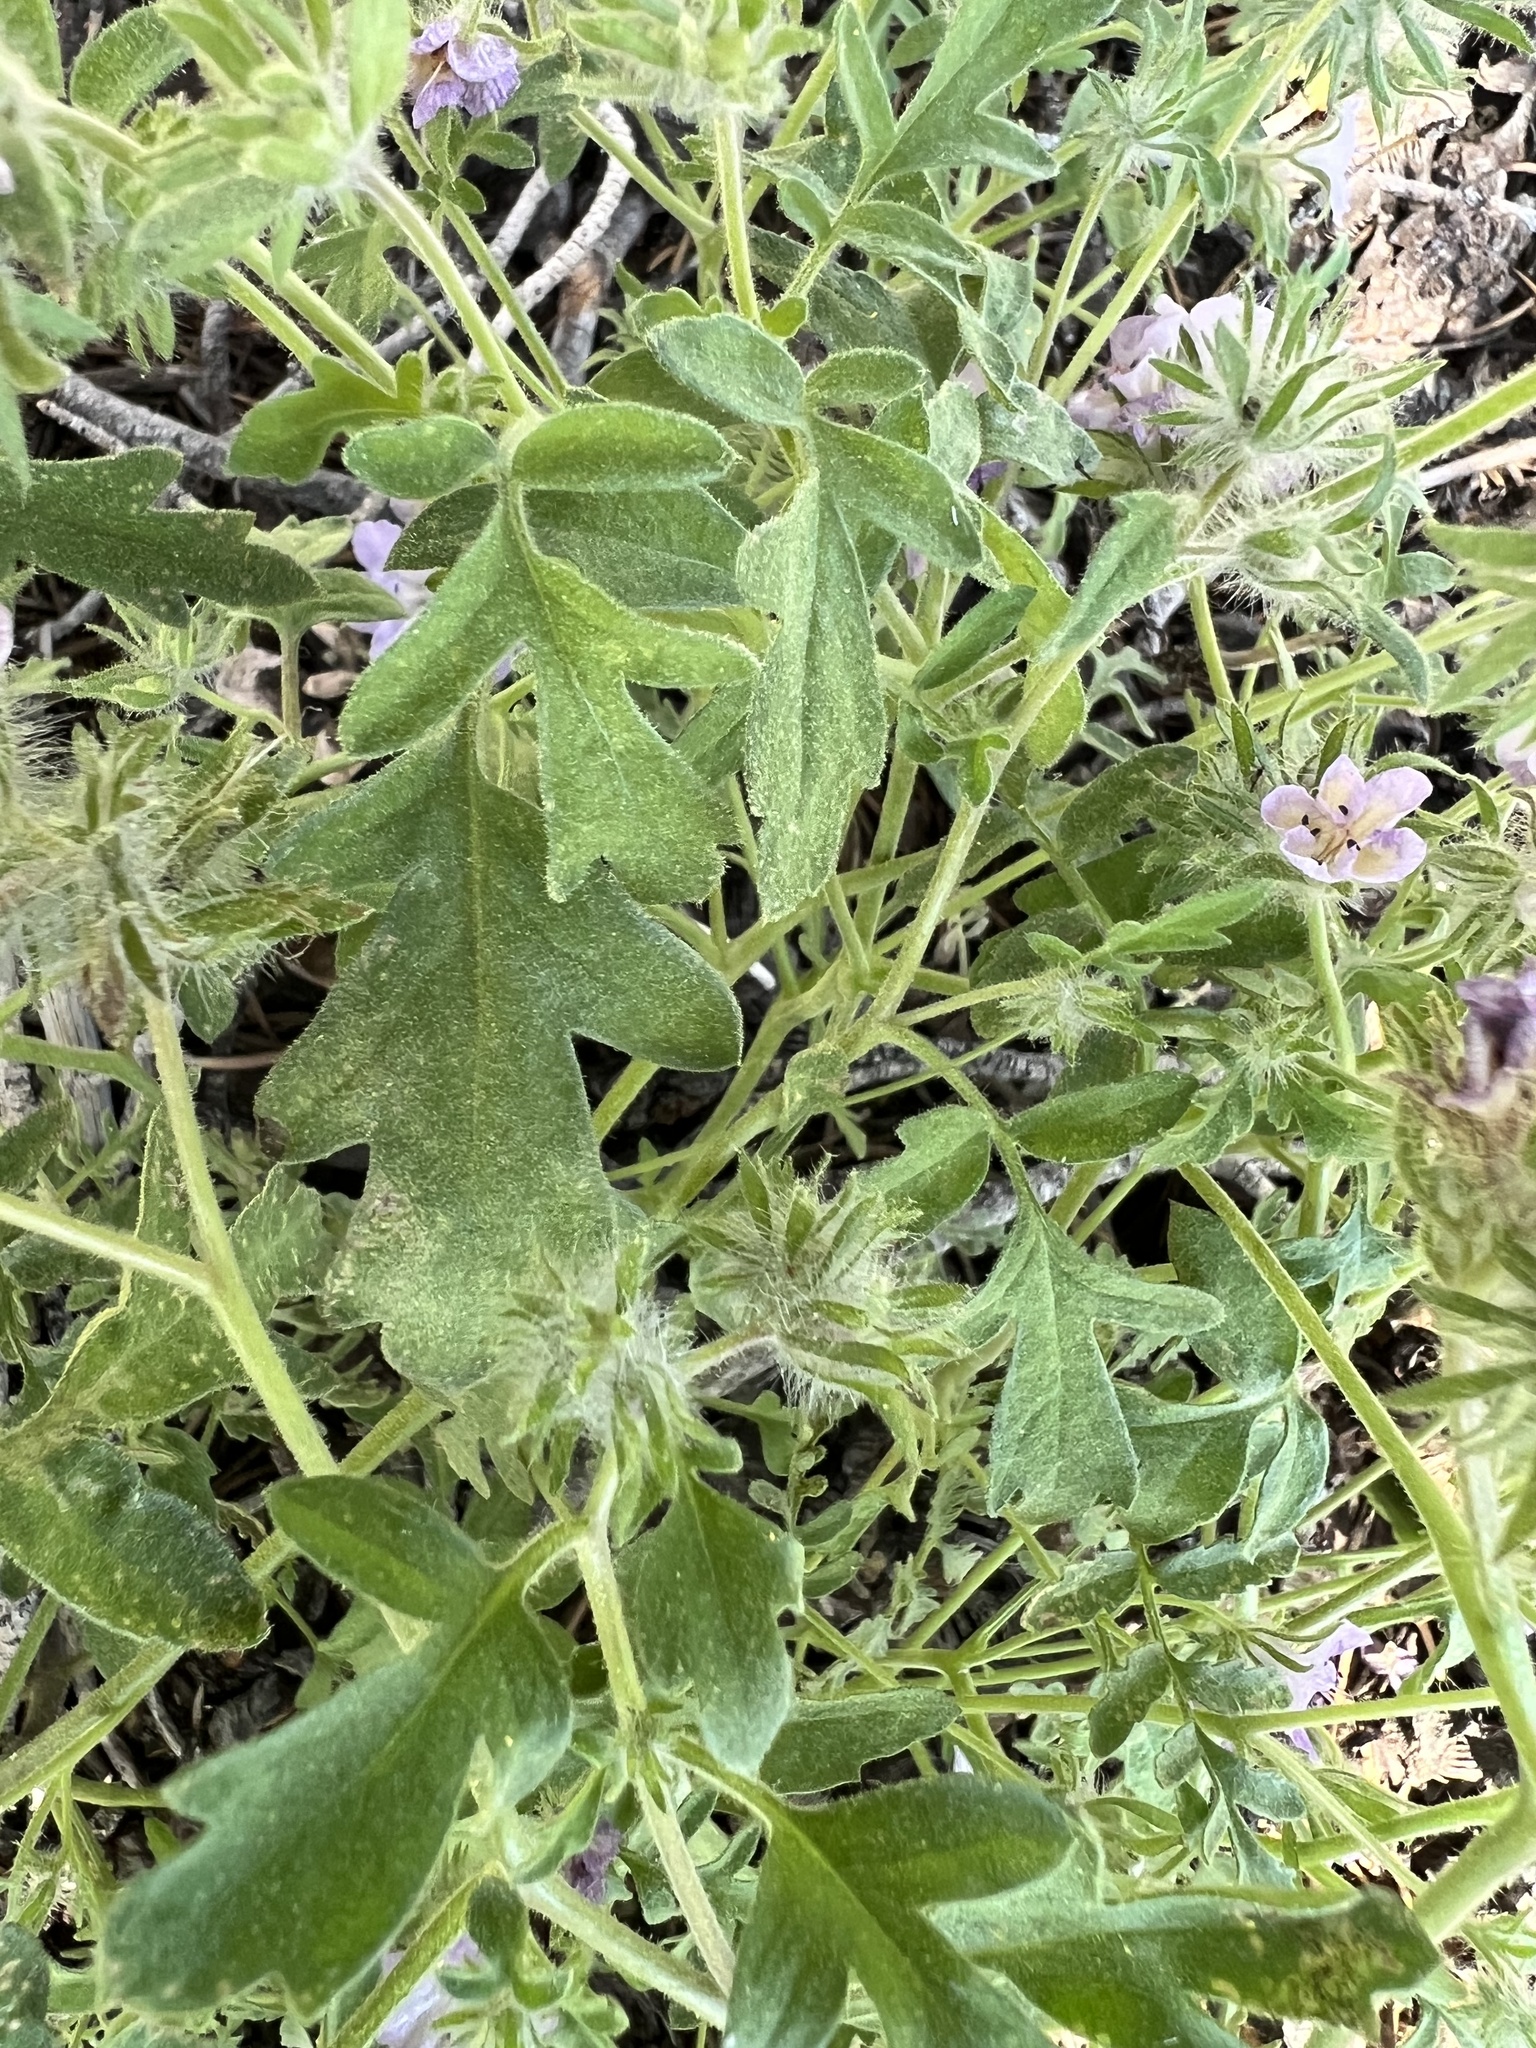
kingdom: Plantae
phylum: Tracheophyta
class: Magnoliopsida
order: Boraginales
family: Hydrophyllaceae
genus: Phacelia
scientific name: Phacelia vallis-mortae
